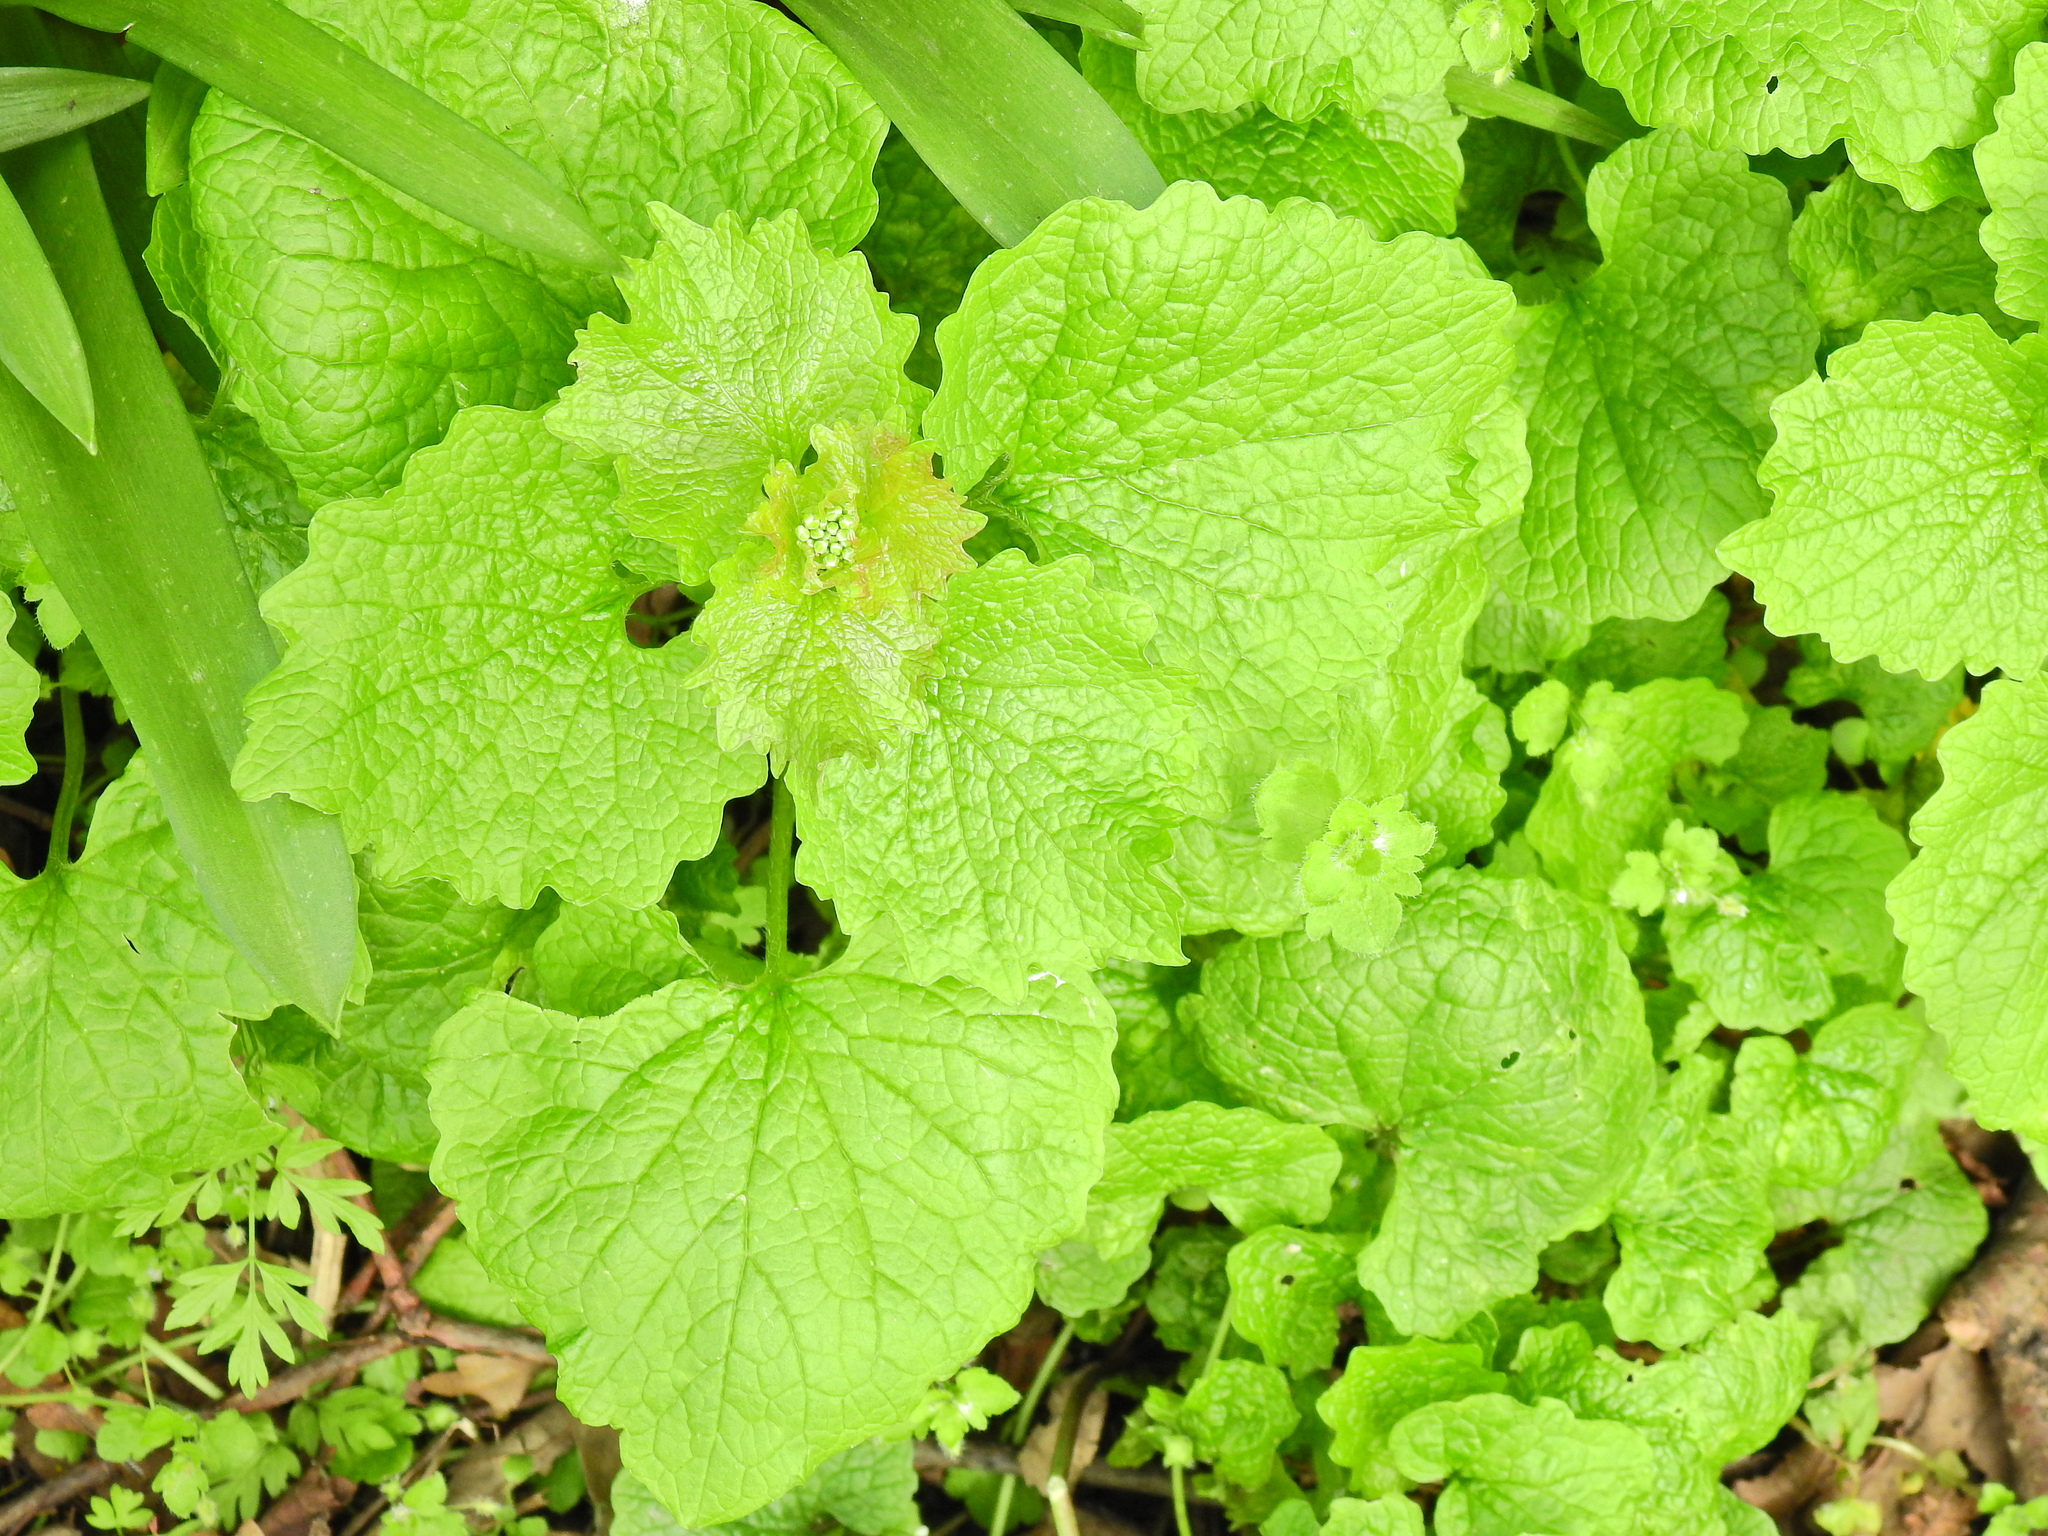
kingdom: Plantae
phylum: Tracheophyta
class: Magnoliopsida
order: Brassicales
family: Brassicaceae
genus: Alliaria
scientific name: Alliaria petiolata
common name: Garlic mustard
